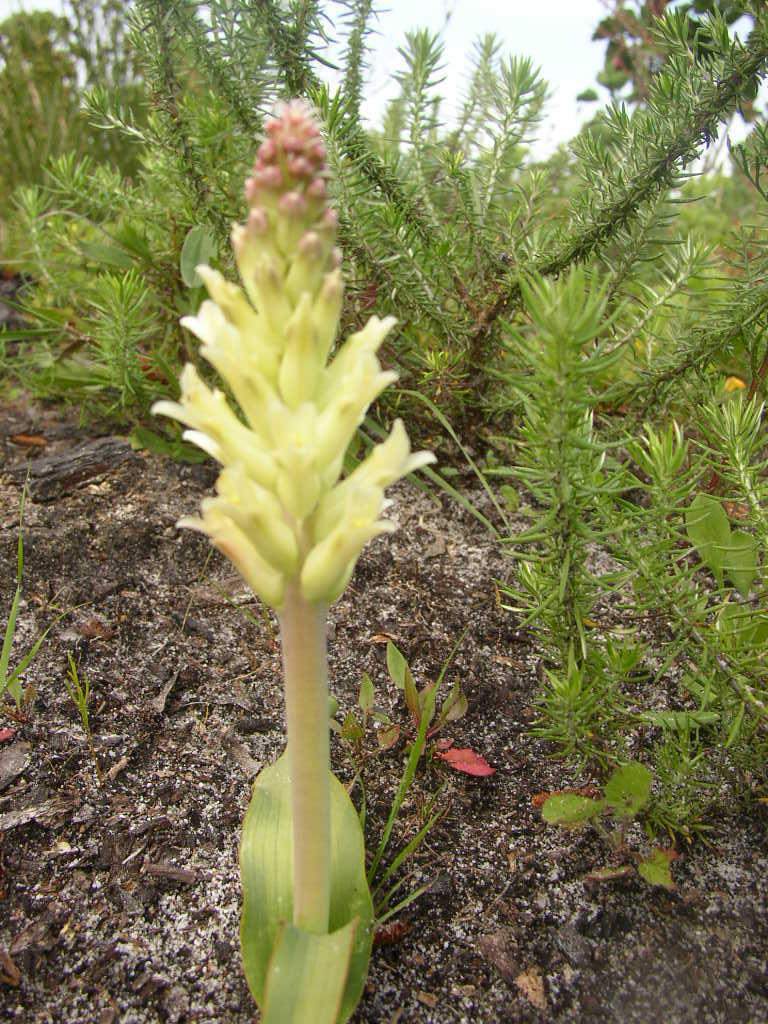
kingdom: Plantae
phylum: Tracheophyta
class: Liliopsida
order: Asparagales
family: Asparagaceae
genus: Lachenalia
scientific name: Lachenalia orchioides
